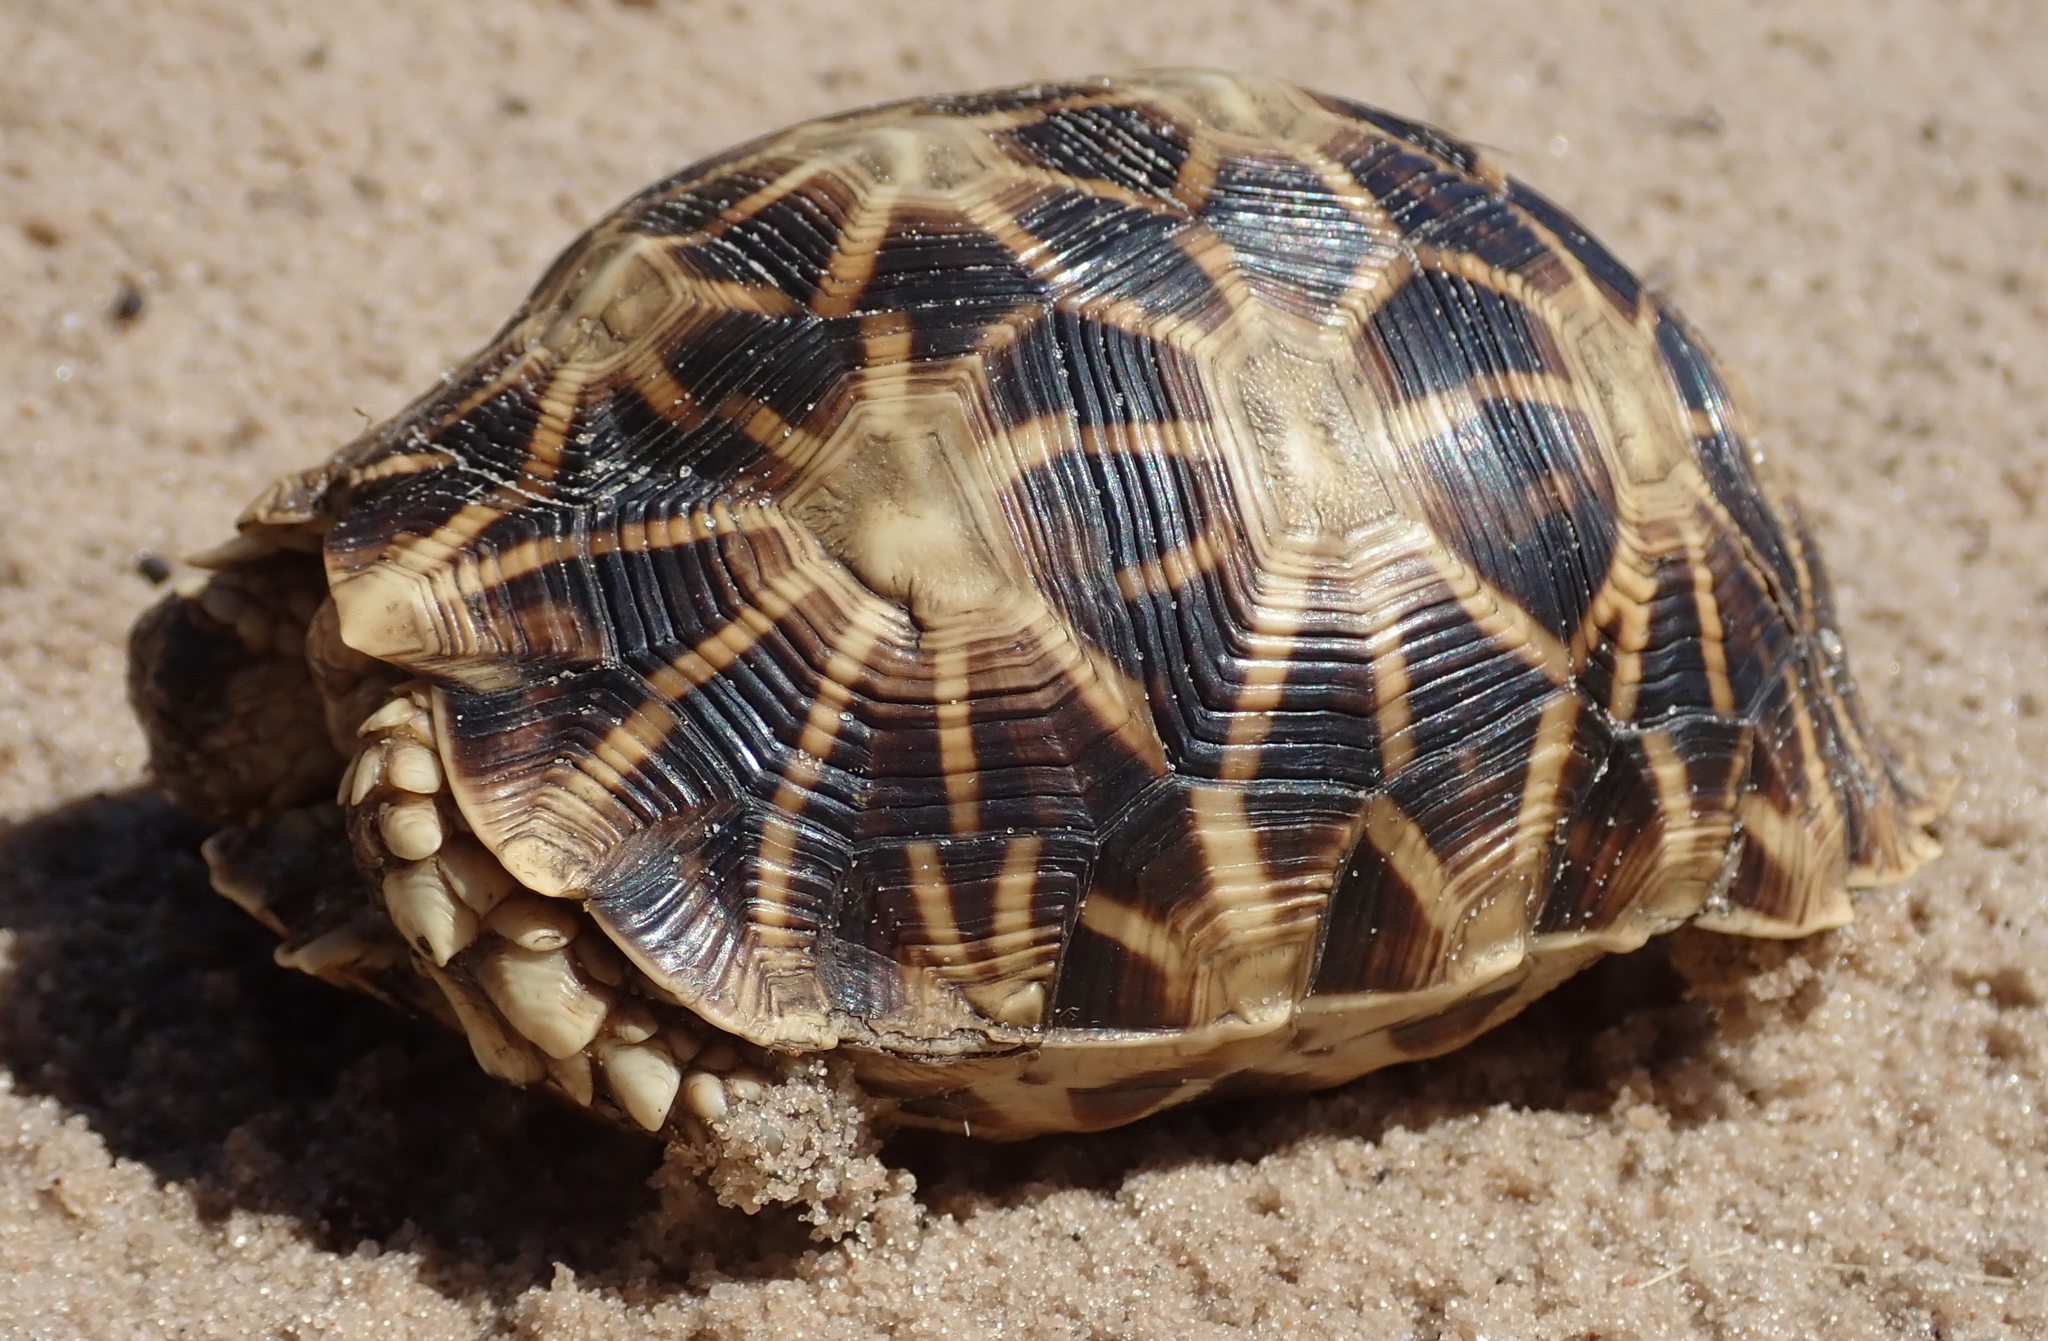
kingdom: Animalia
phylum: Chordata
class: Testudines
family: Testudinidae
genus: Psammobates
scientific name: Psammobates oculifer
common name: Serrated tortoise
